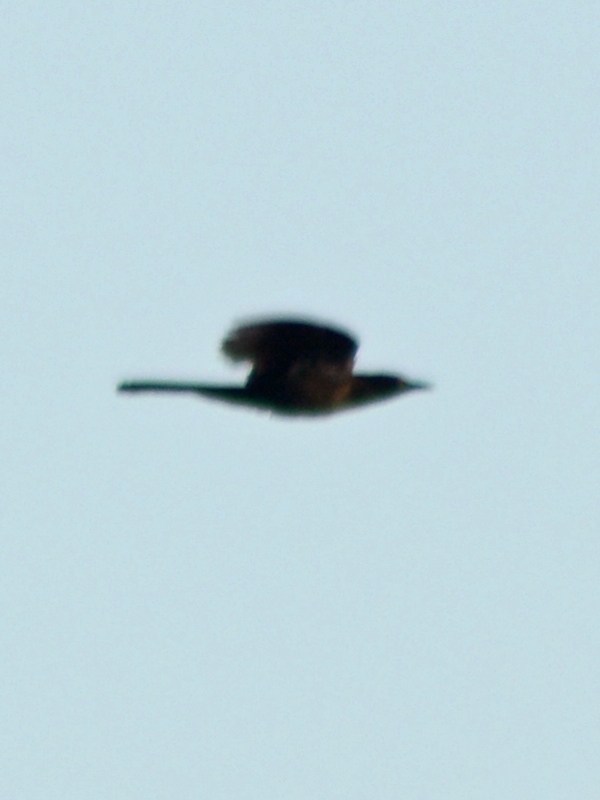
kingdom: Animalia
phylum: Chordata
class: Aves
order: Passeriformes
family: Icteridae
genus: Quiscalus
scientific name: Quiscalus mexicanus
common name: Great-tailed grackle
